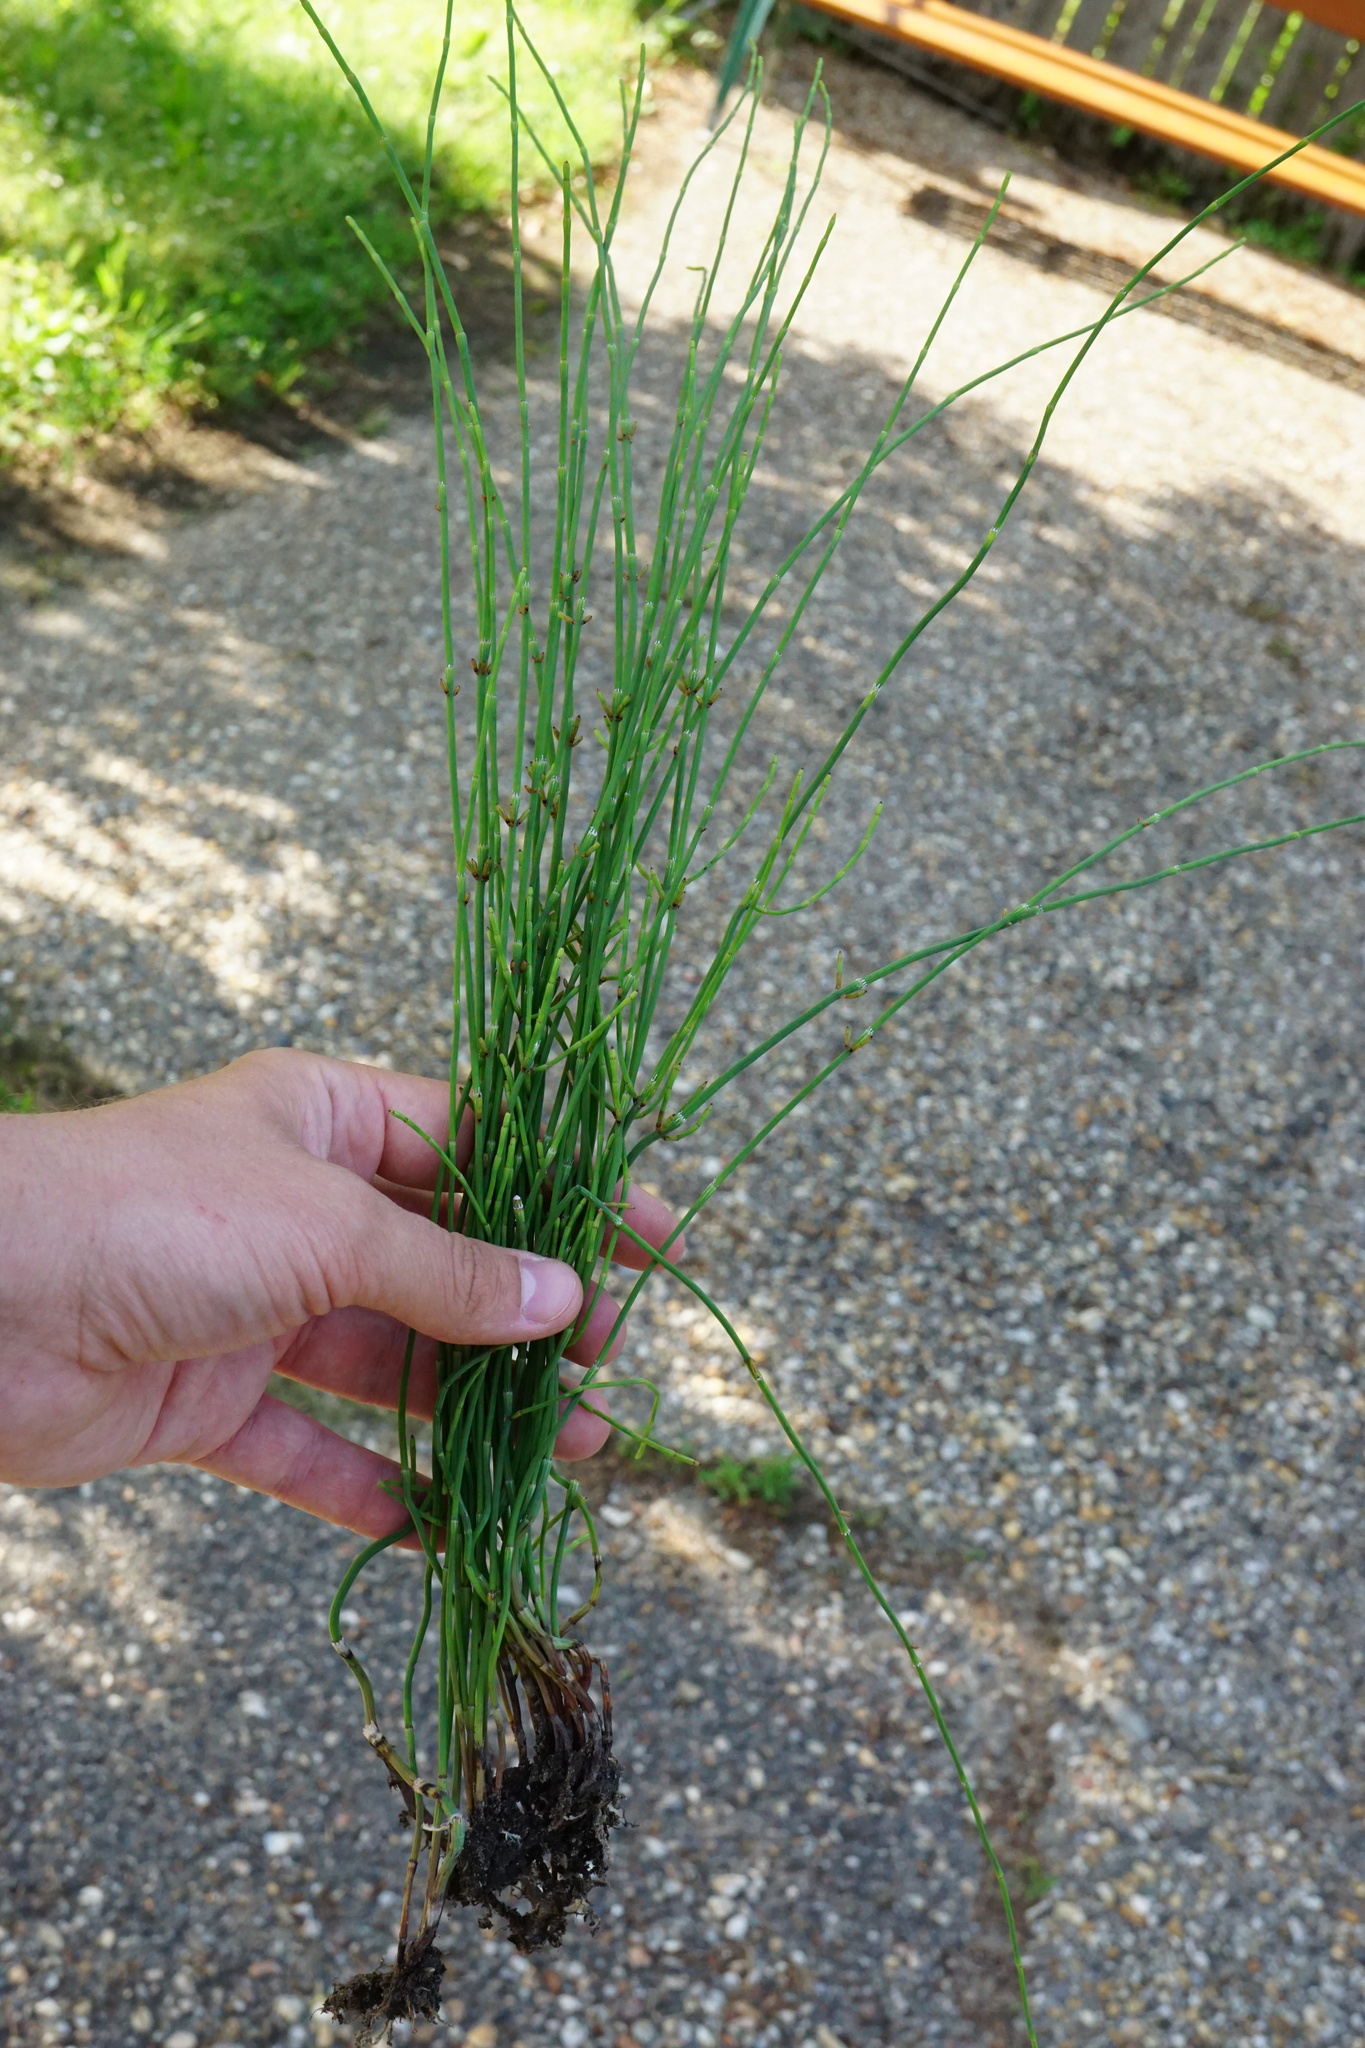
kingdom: Plantae
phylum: Tracheophyta
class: Polypodiopsida
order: Equisetales
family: Equisetaceae
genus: Equisetum
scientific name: Equisetum ramosissimum
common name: Branched horsetail
